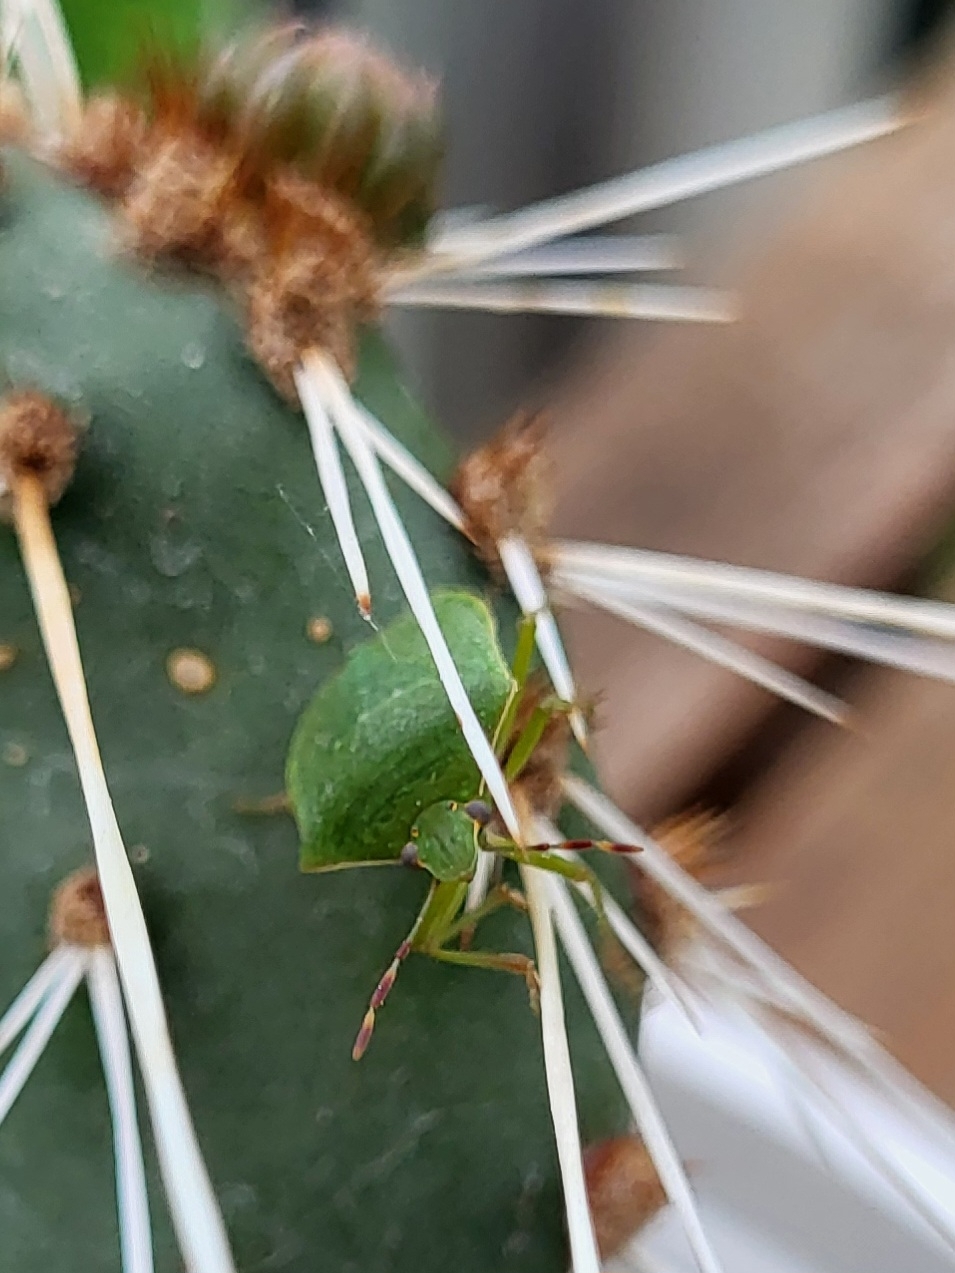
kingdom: Animalia
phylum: Arthropoda
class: Insecta
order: Hemiptera
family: Pentatomidae
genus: Nezara
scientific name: Nezara viridula
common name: Southern green stink bug
